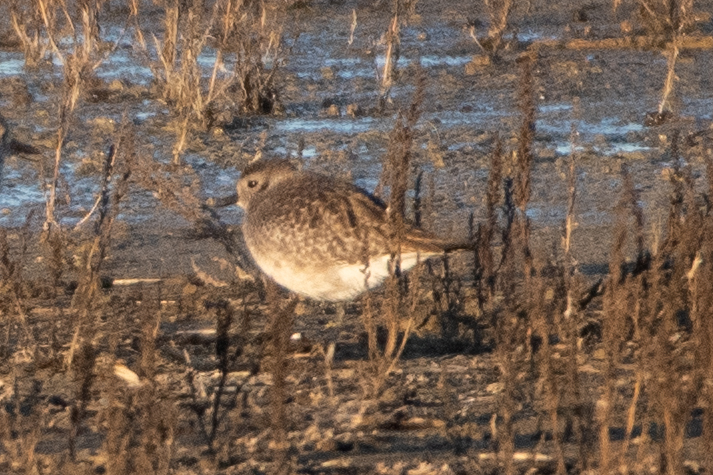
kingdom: Animalia
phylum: Chordata
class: Aves
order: Charadriiformes
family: Charadriidae
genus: Pluvialis
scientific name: Pluvialis squatarola
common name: Grey plover
